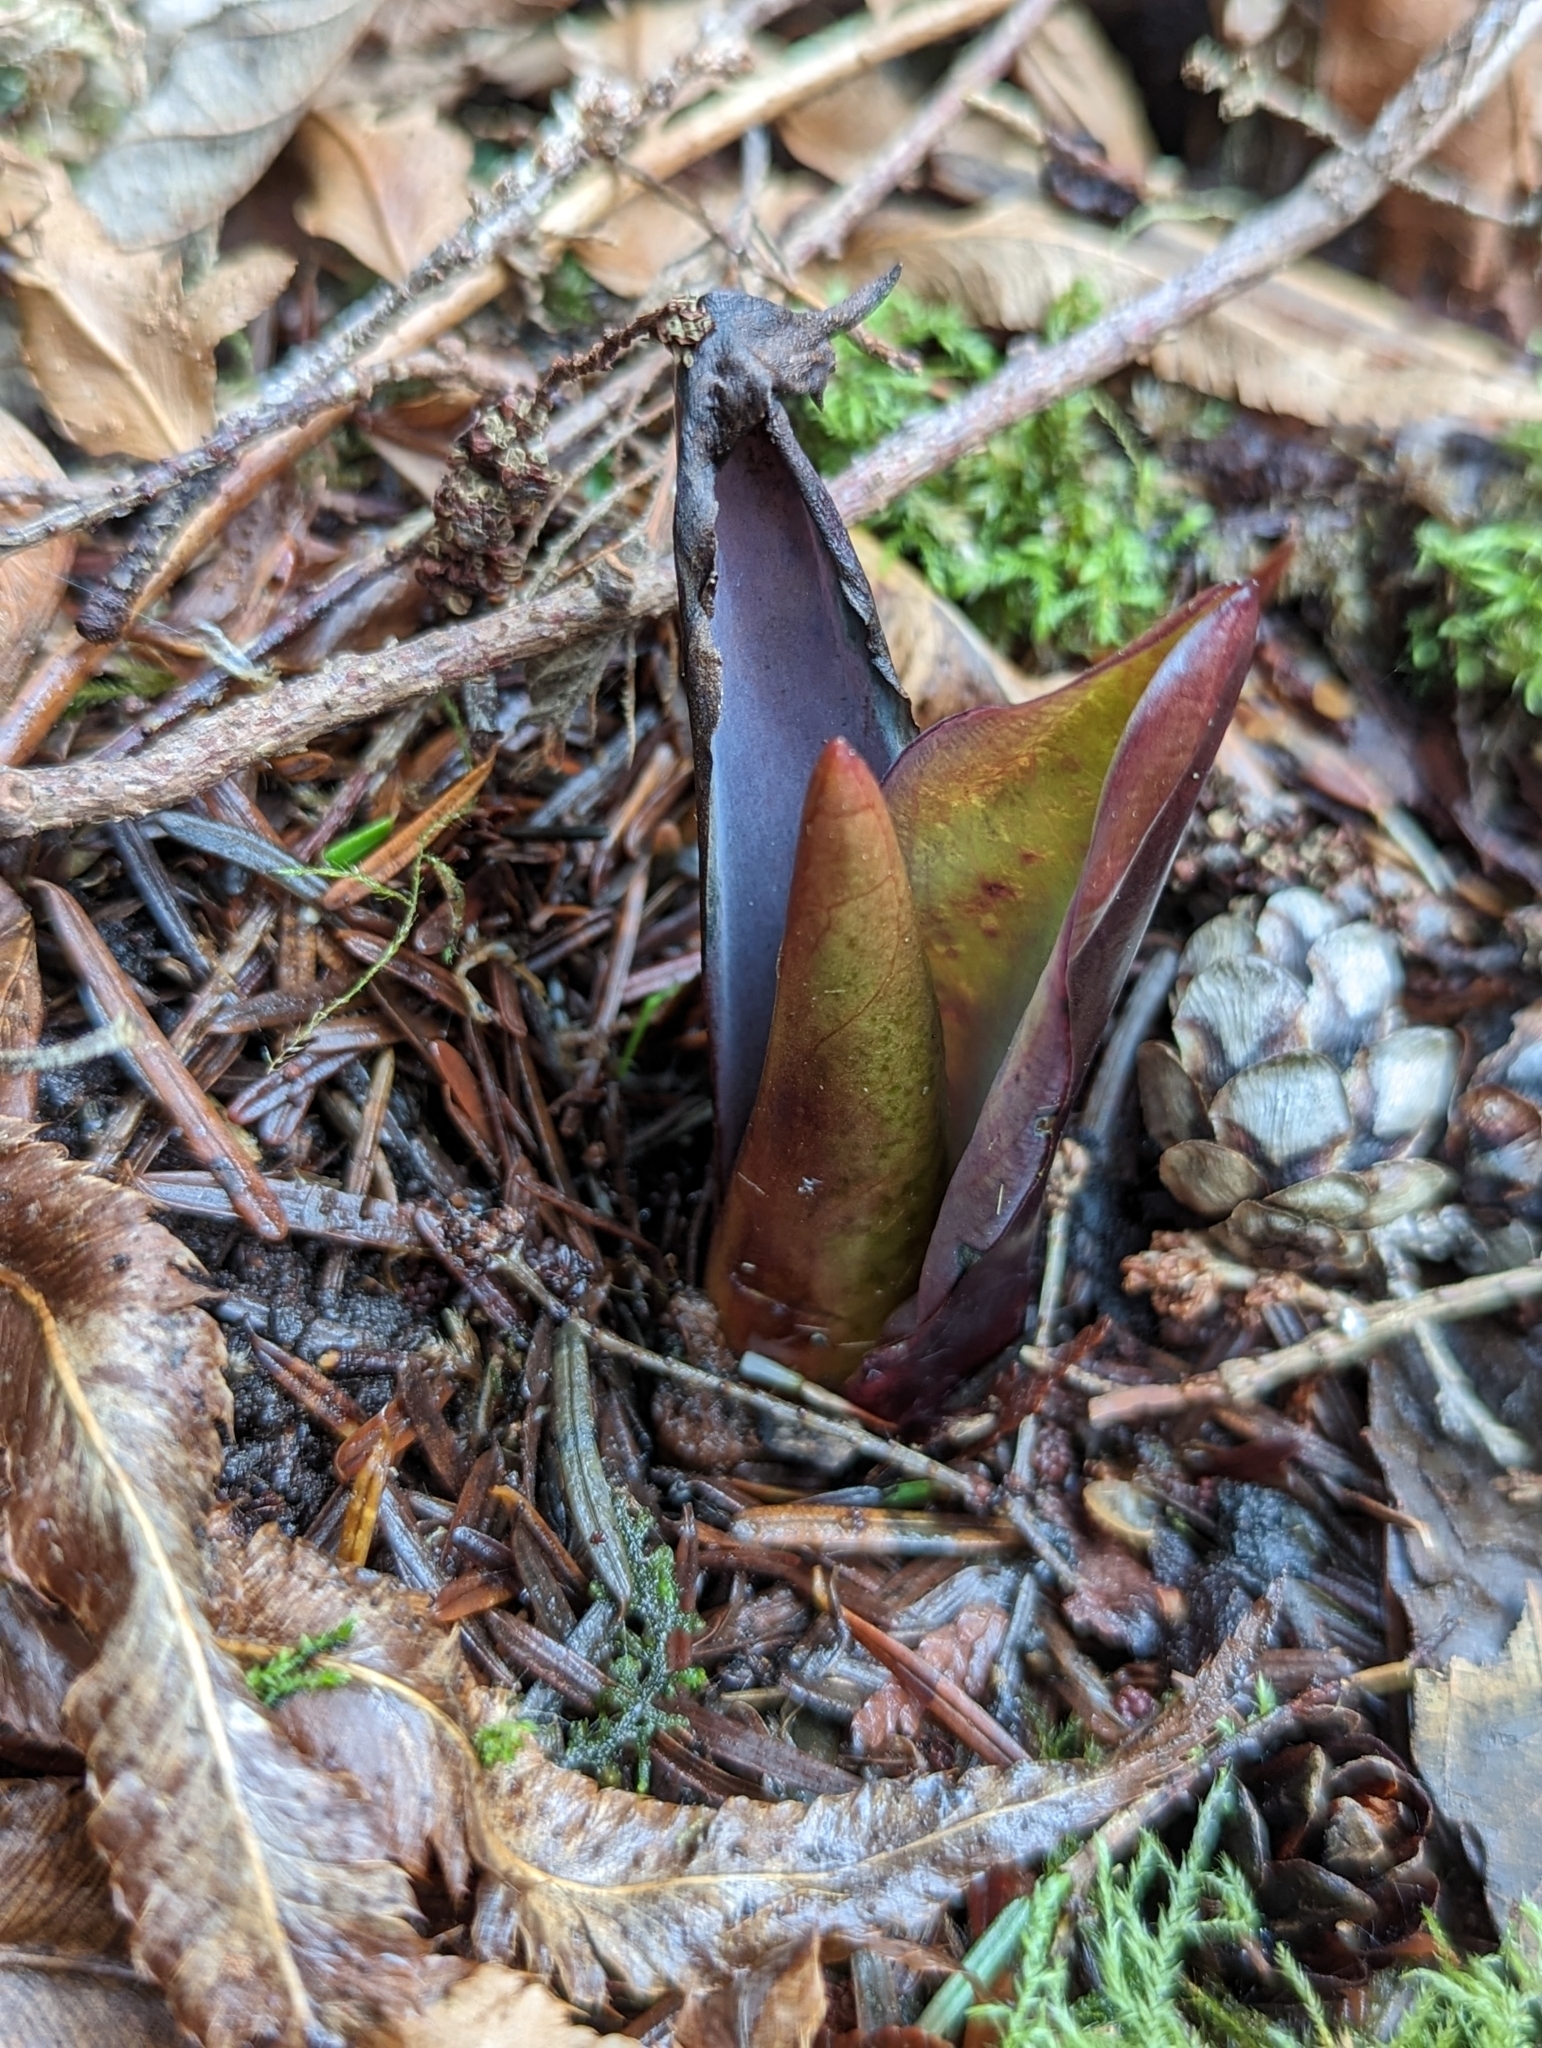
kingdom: Plantae
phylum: Tracheophyta
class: Liliopsida
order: Alismatales
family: Araceae
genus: Lysichiton
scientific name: Lysichiton americanus
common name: American skunk cabbage
